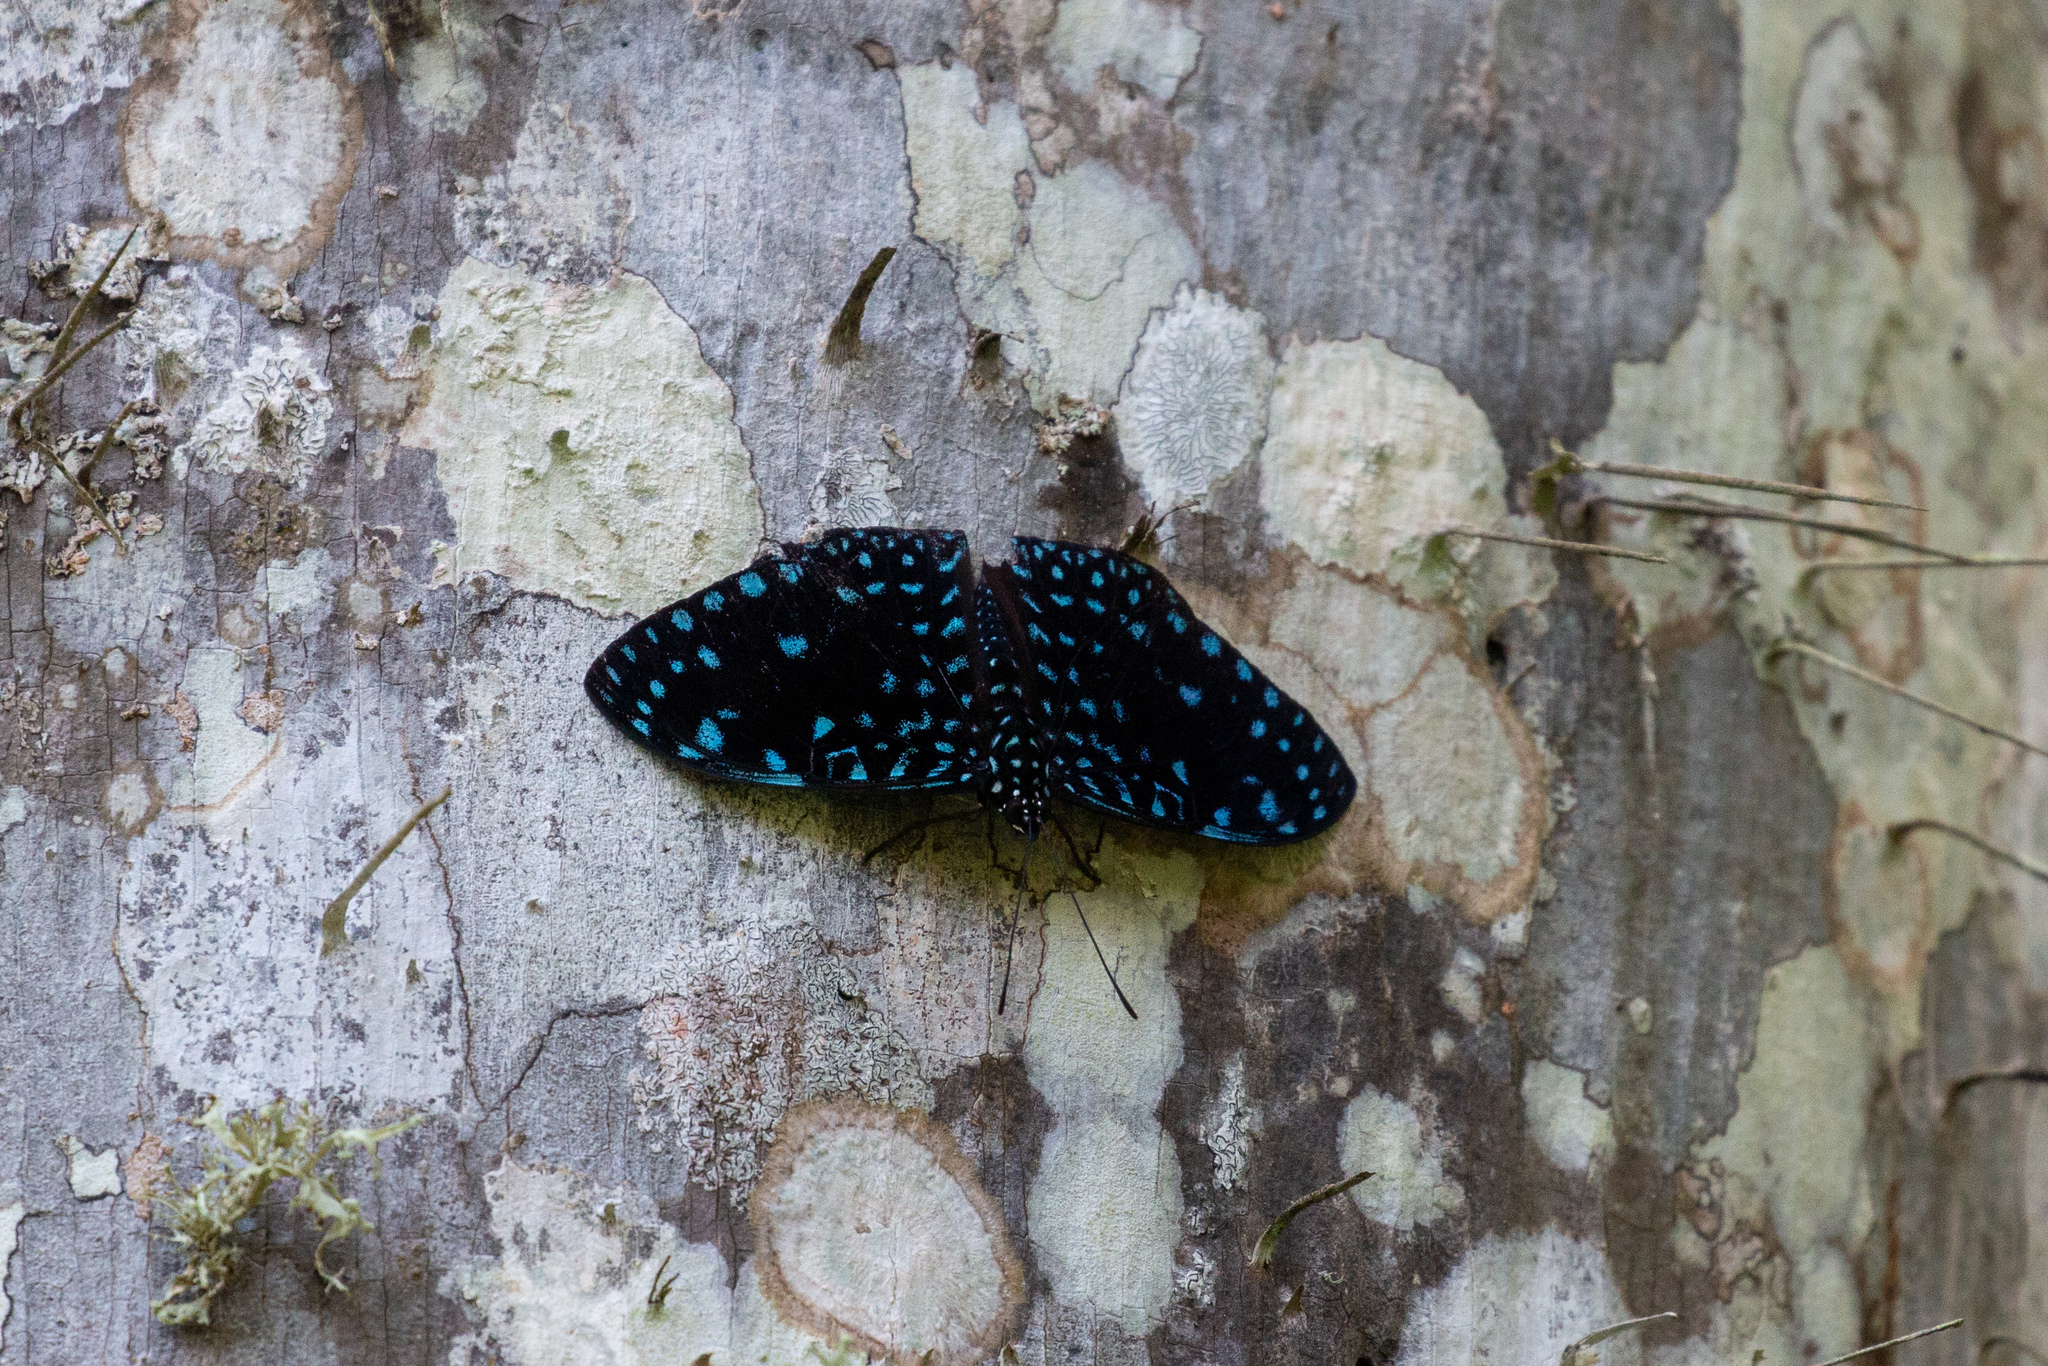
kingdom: Animalia
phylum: Arthropoda
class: Insecta
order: Lepidoptera
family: Nymphalidae
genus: Hamadryas
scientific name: Hamadryas laodamia
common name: Starry night cracker
